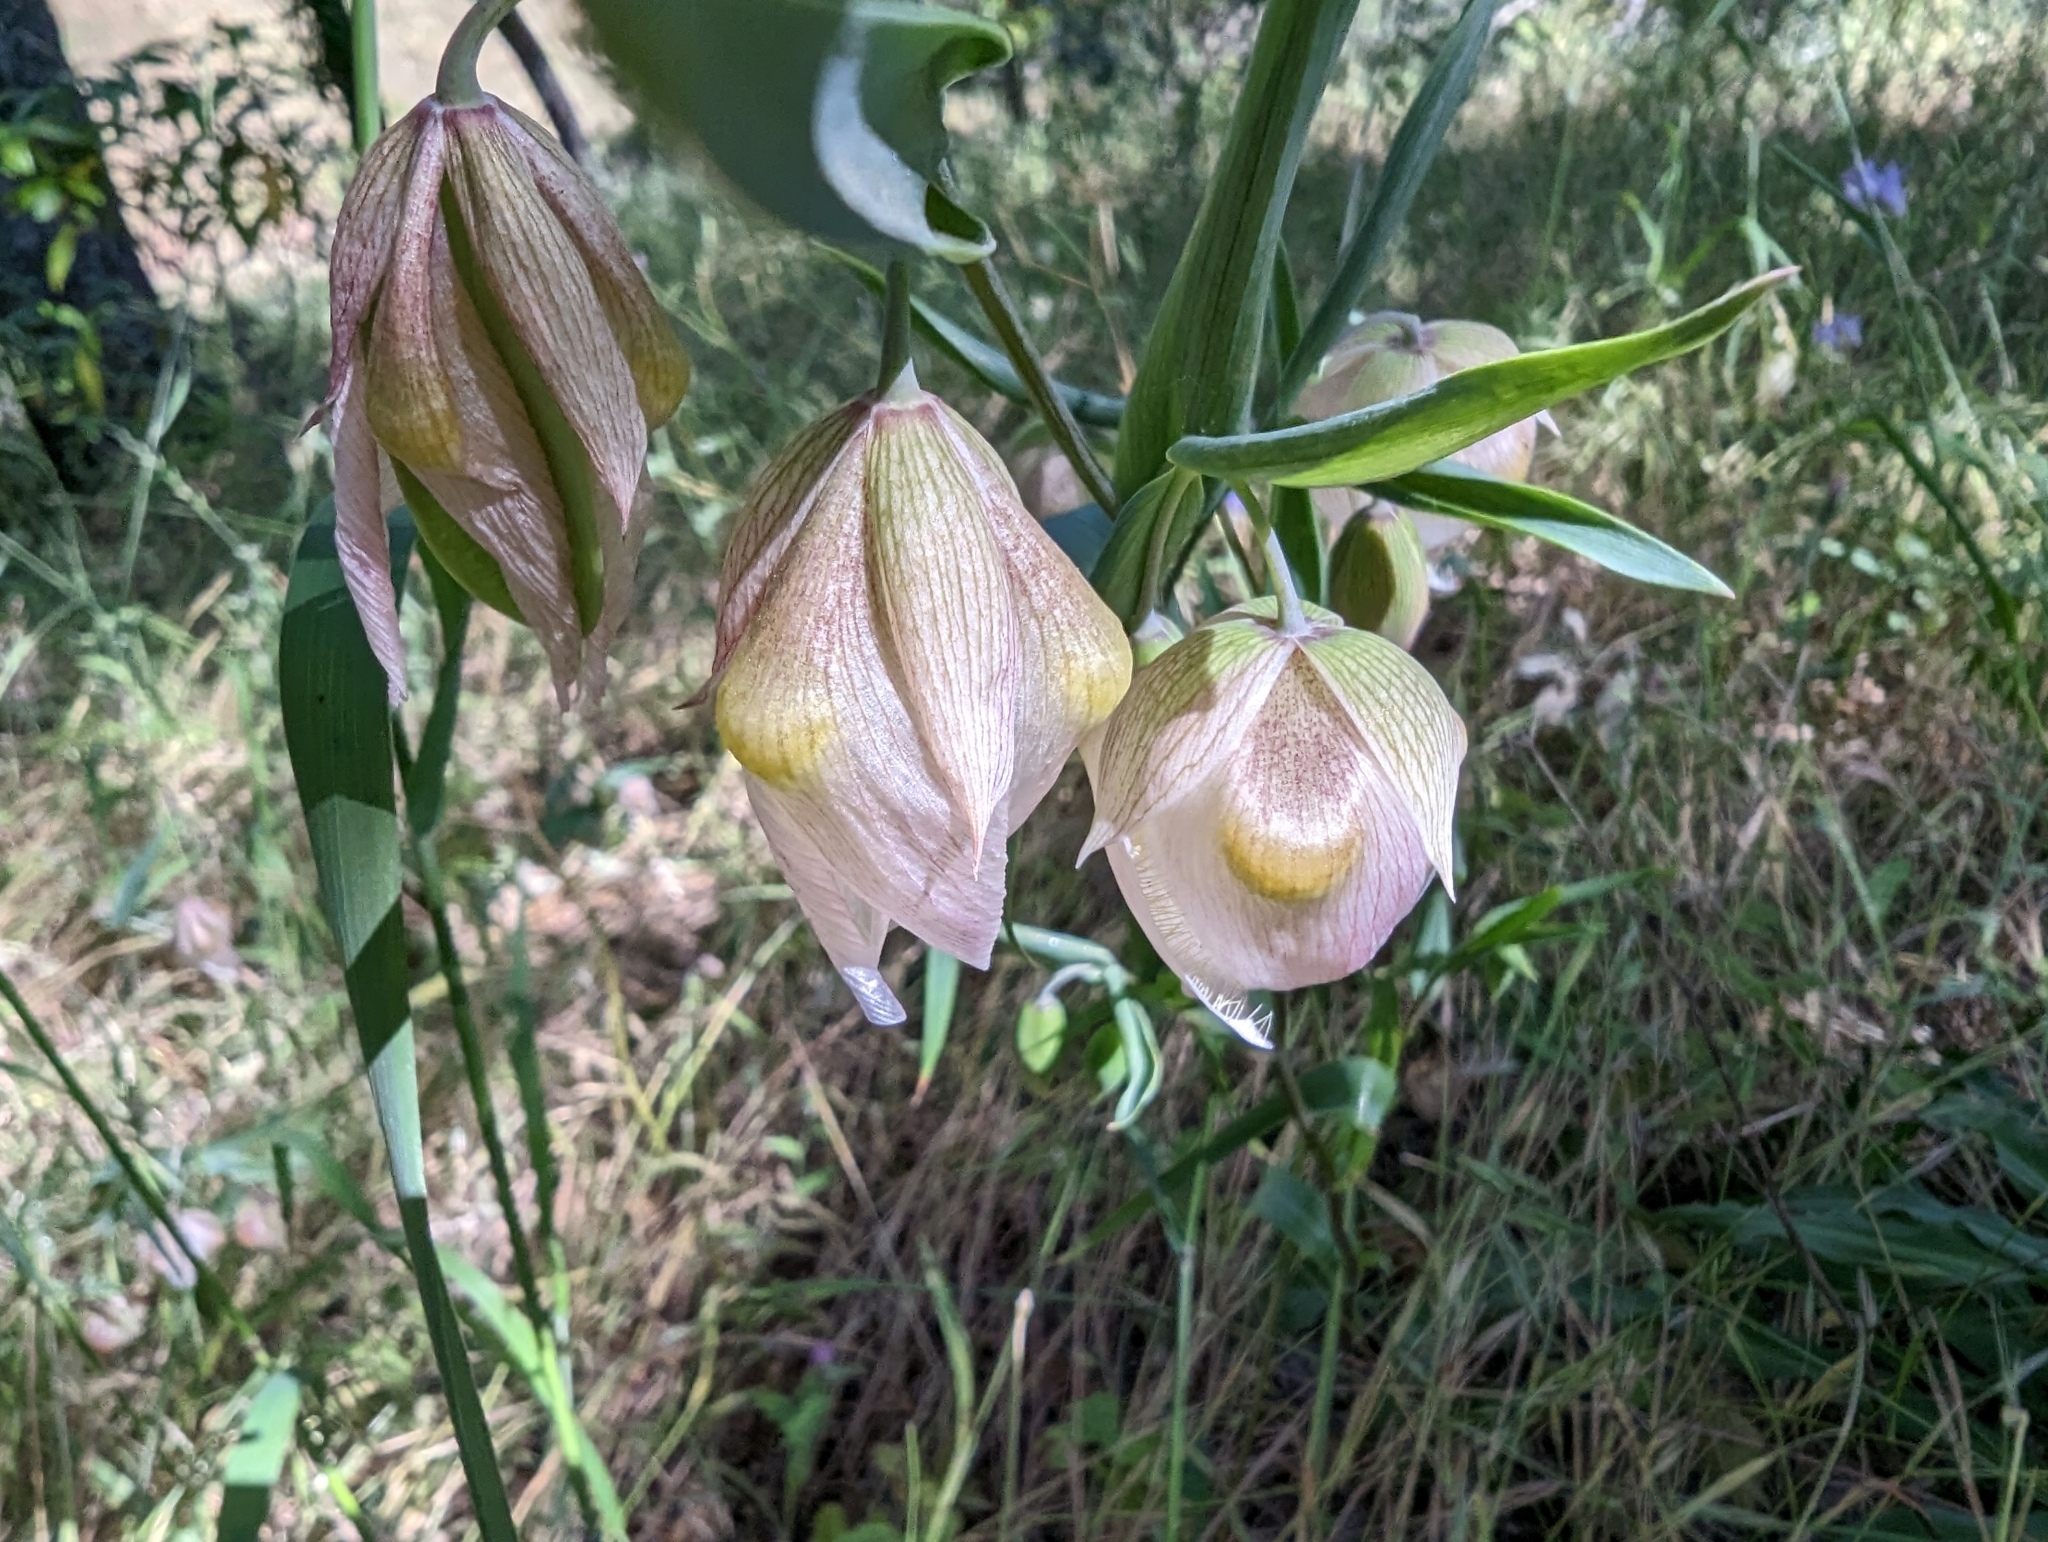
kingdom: Plantae
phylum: Tracheophyta
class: Liliopsida
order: Liliales
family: Liliaceae
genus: Calochortus
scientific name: Calochortus albus
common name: Fairy-lantern
